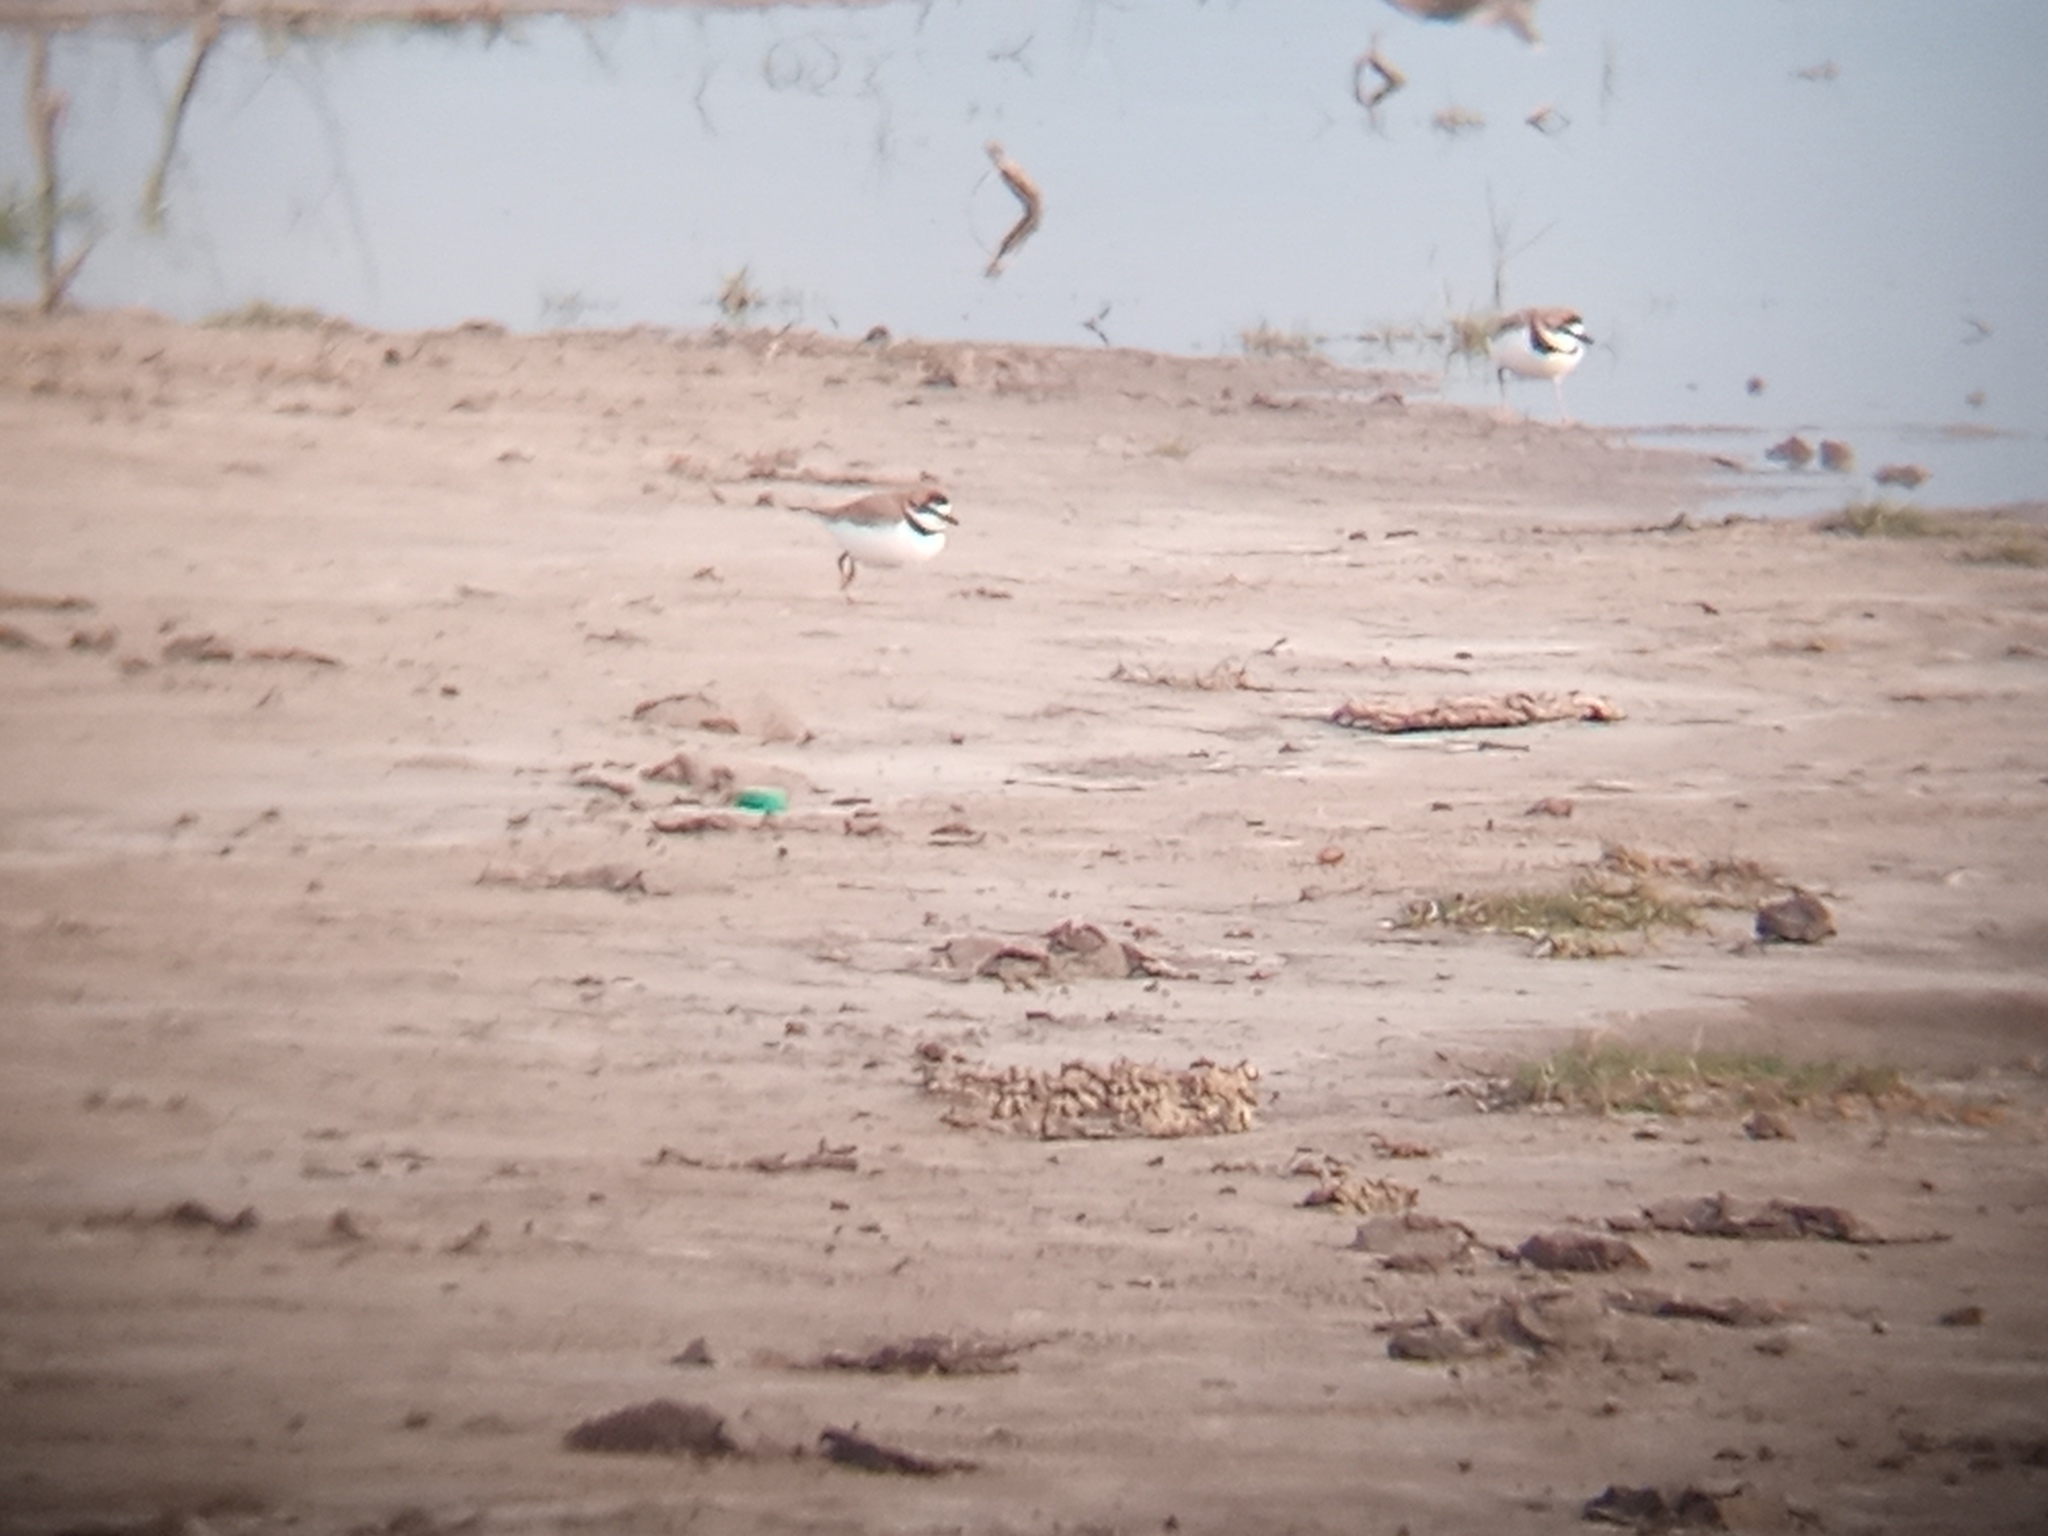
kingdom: Animalia
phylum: Chordata
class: Aves
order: Charadriiformes
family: Charadriidae
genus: Anarhynchus
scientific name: Anarhynchus
